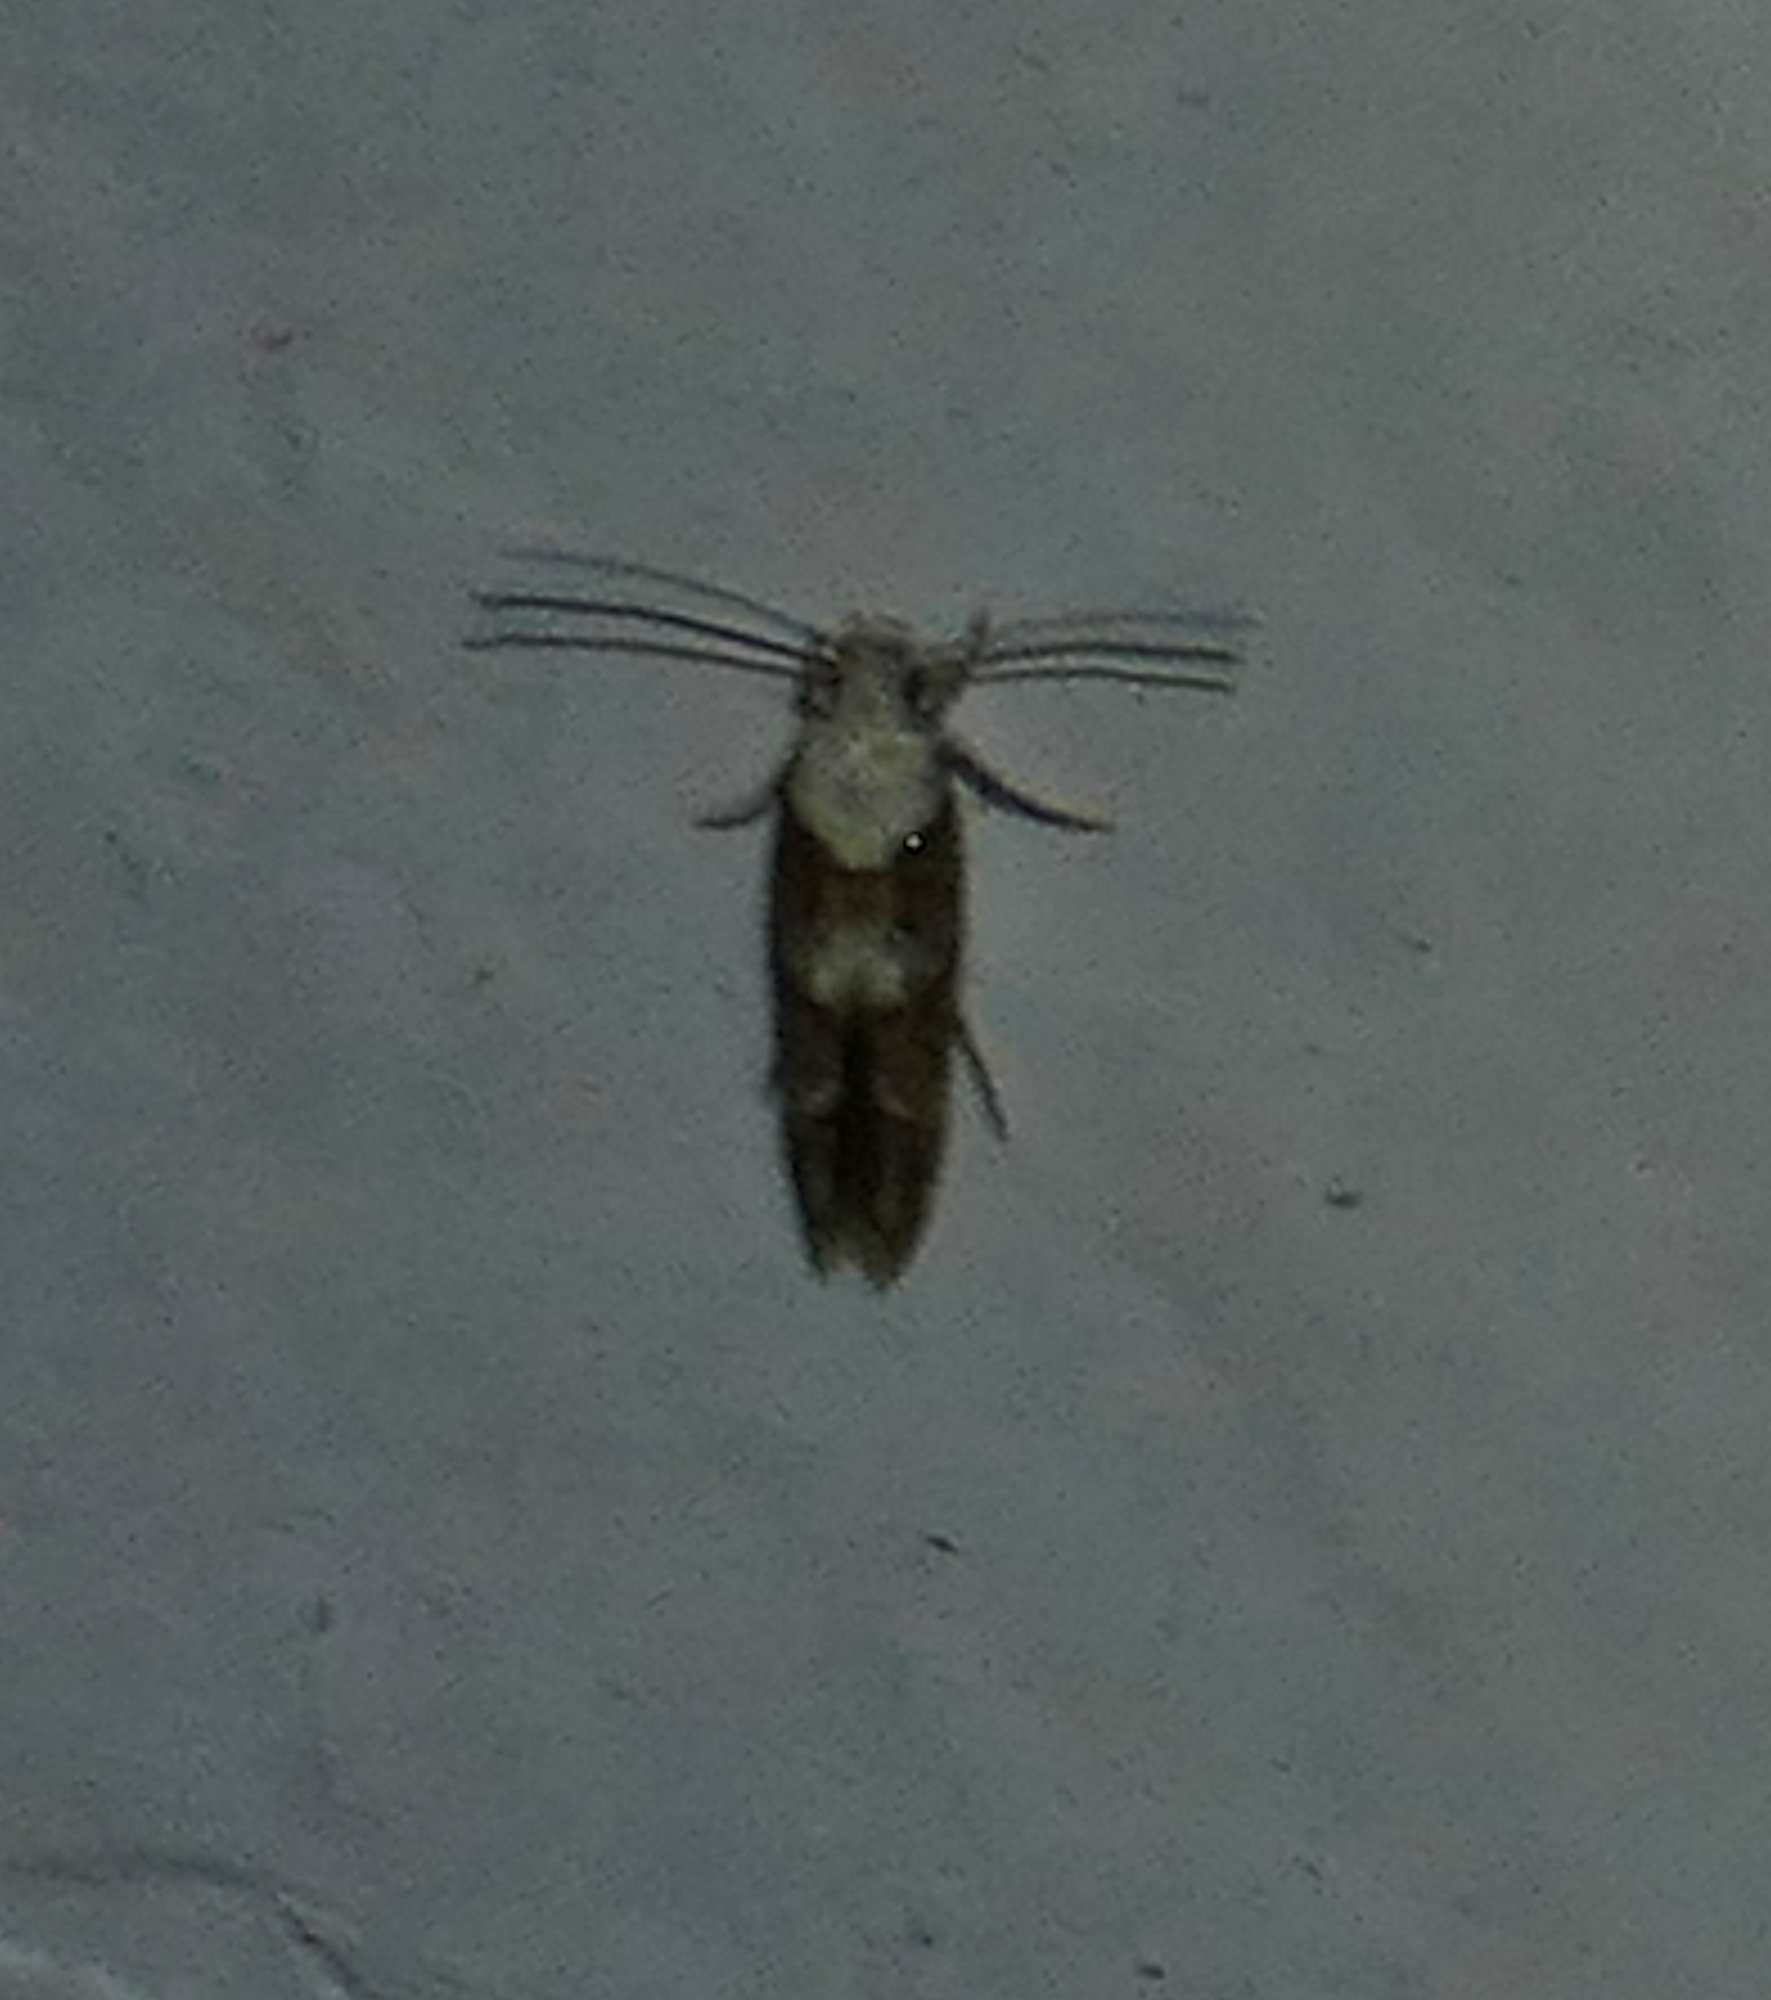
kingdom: Animalia
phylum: Arthropoda
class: Insecta
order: Lepidoptera
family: Momphidae
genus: Mompha
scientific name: Mompha albocapitella
